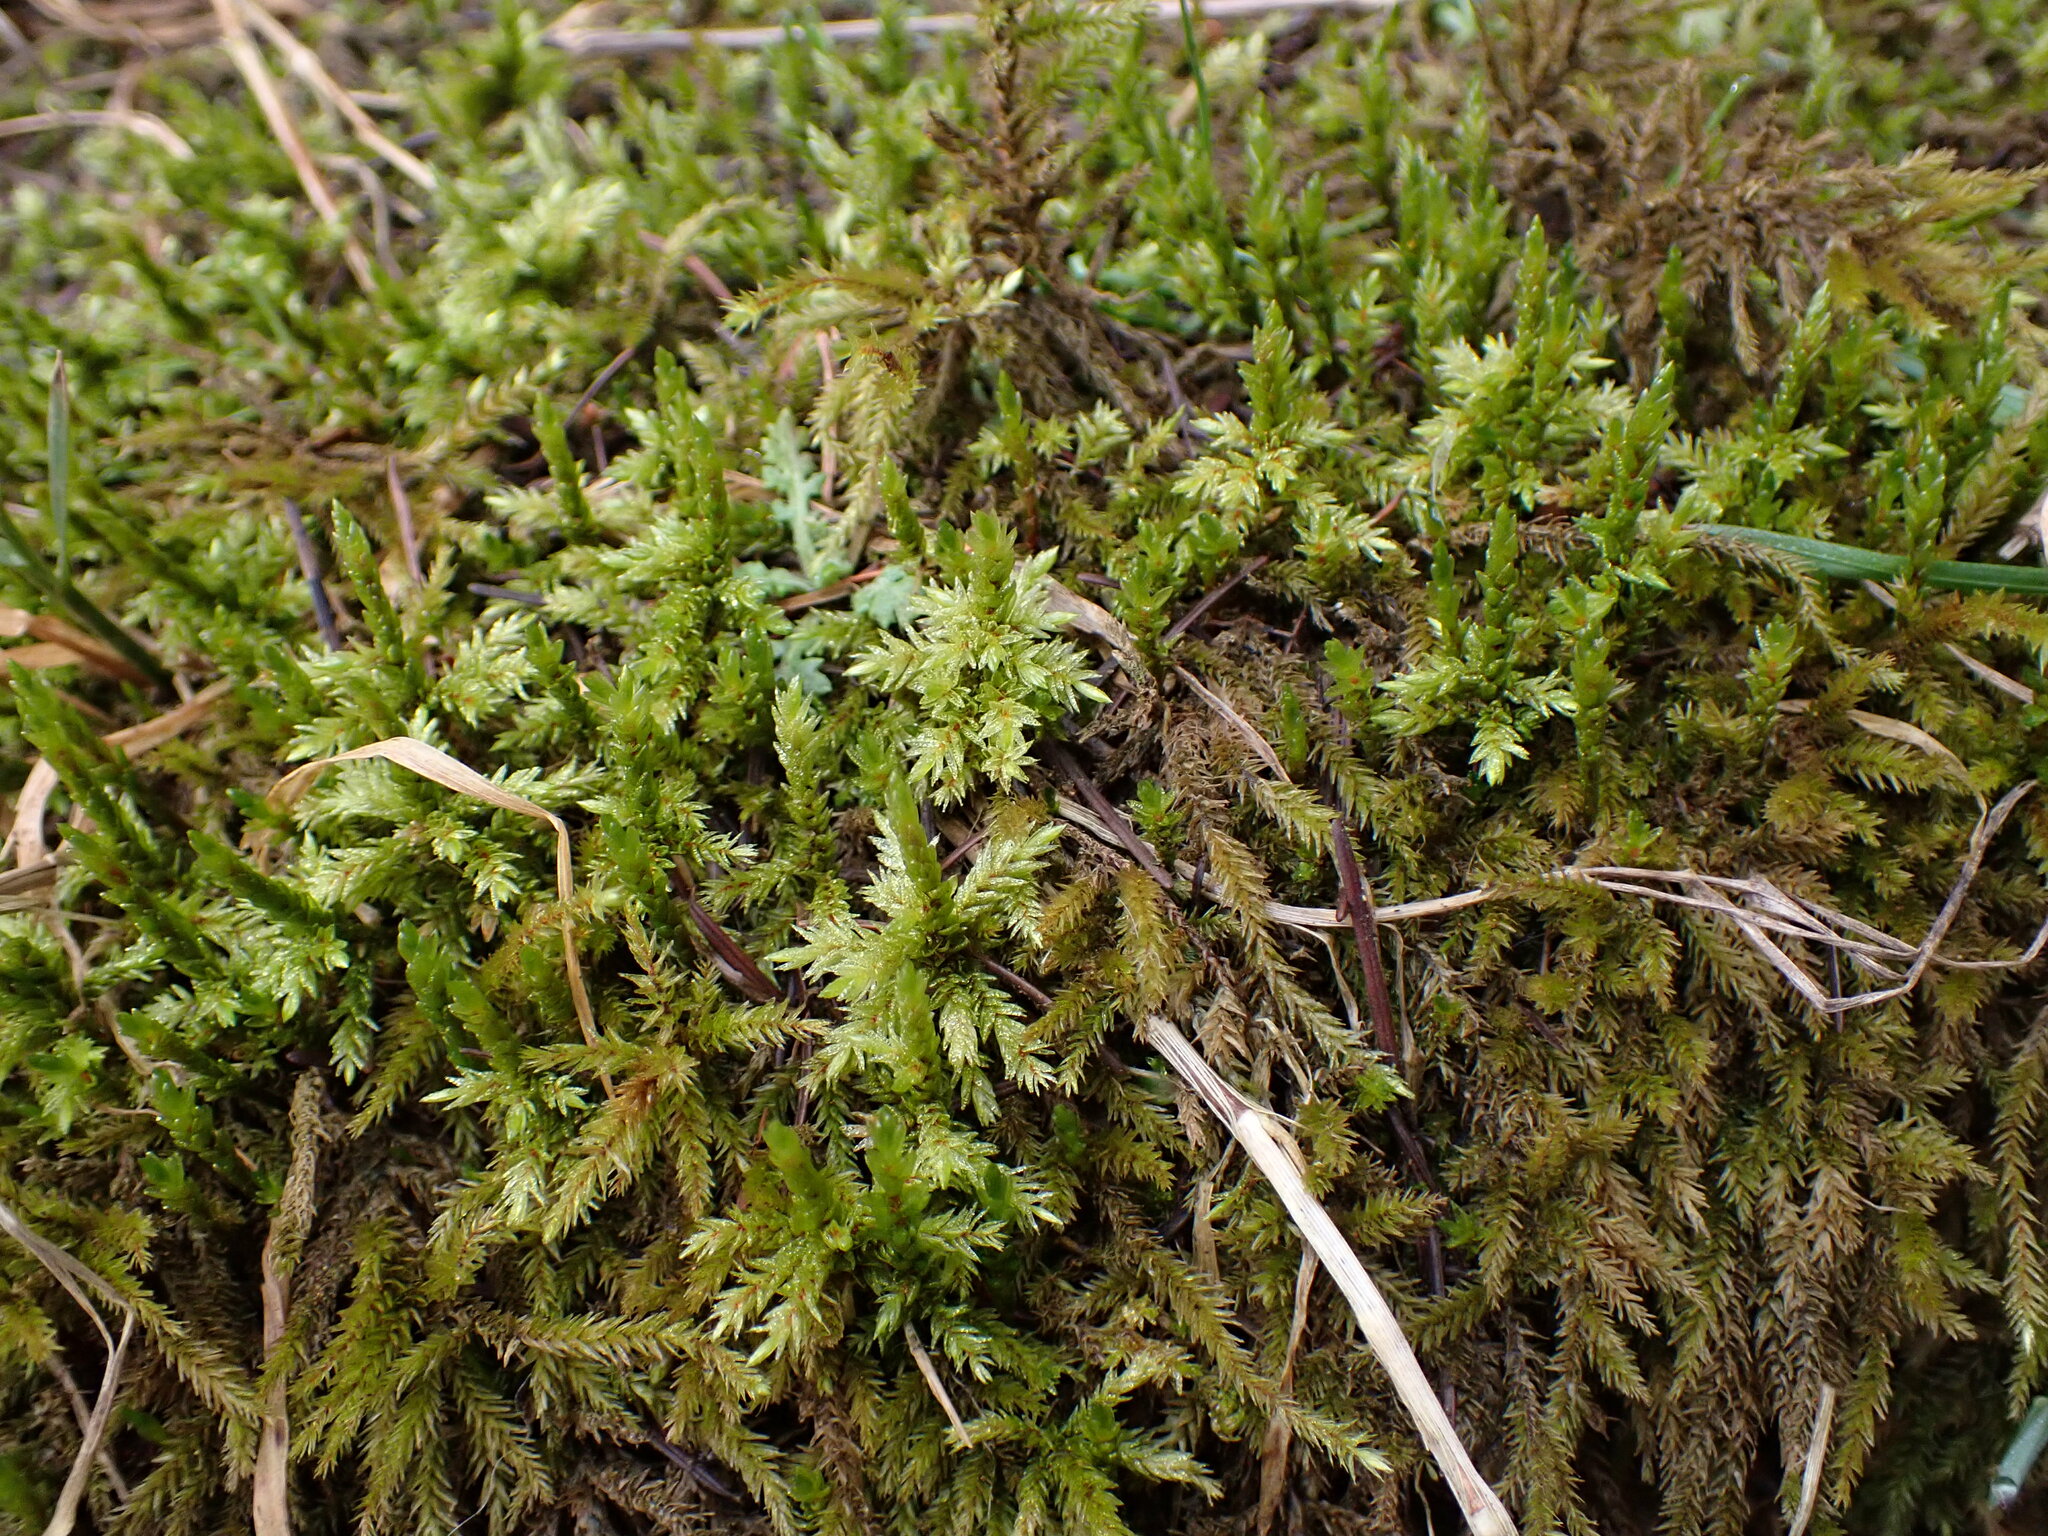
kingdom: Plantae
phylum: Bryophyta
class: Bryopsida
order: Hypnales
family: Climaciaceae
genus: Climacium
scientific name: Climacium dendroides
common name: Northern tree moss
